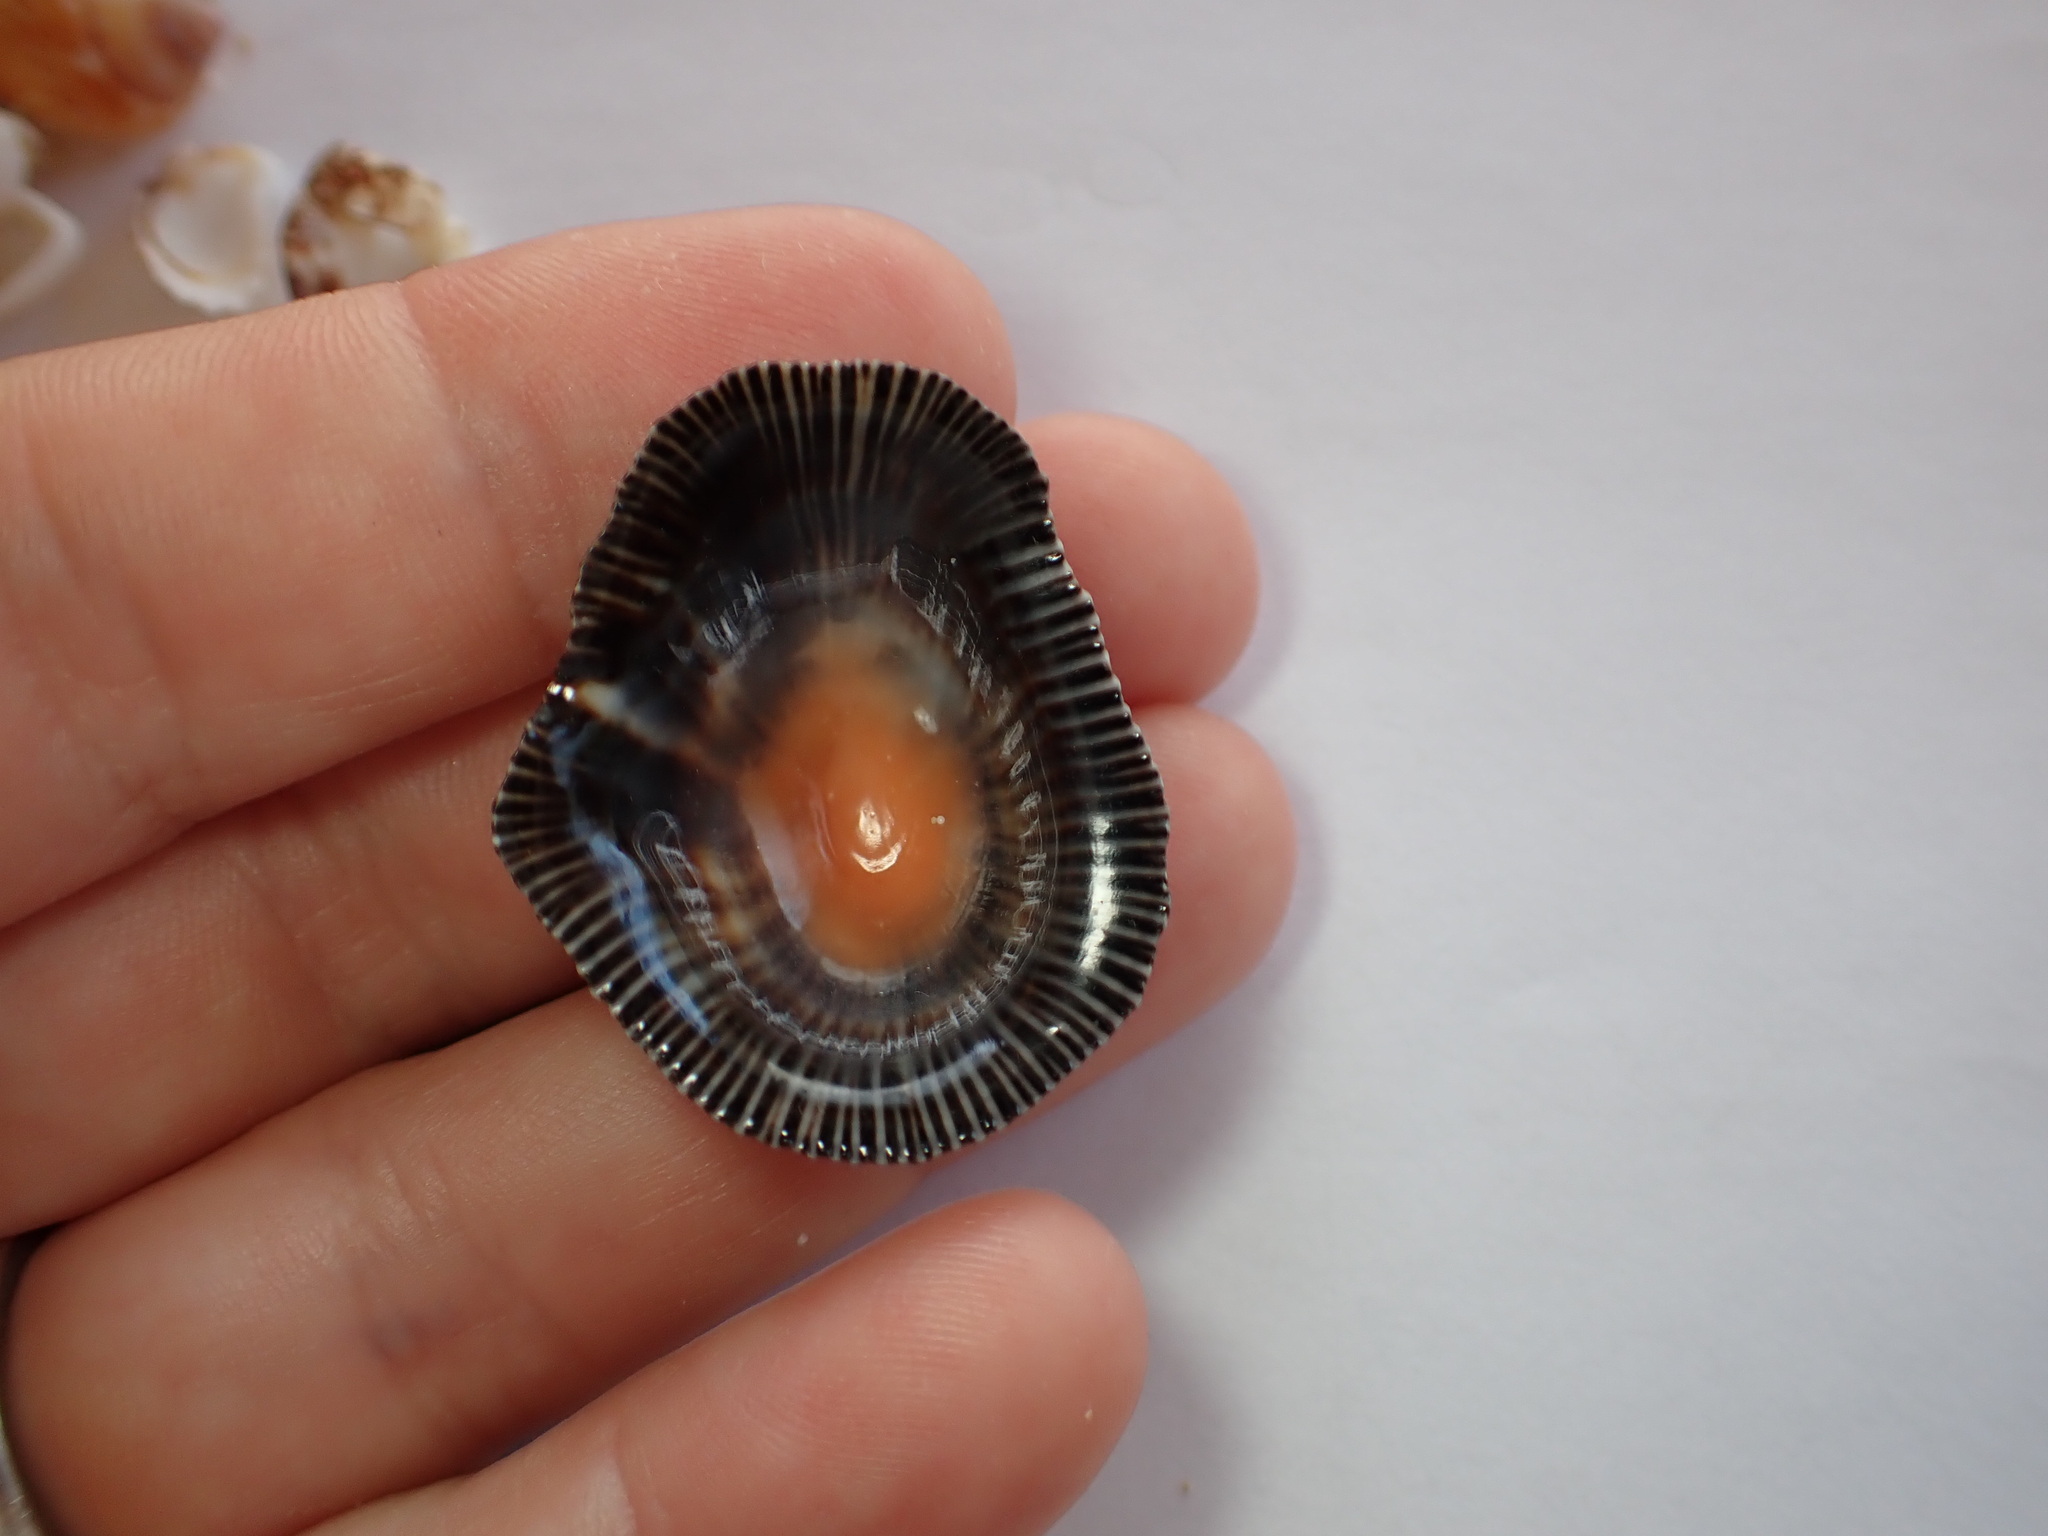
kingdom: Animalia
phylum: Mollusca
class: Gastropoda
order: Siphonariida
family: Siphonariidae
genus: Siphonaria
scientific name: Siphonaria pectinata
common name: Striped false limpet
